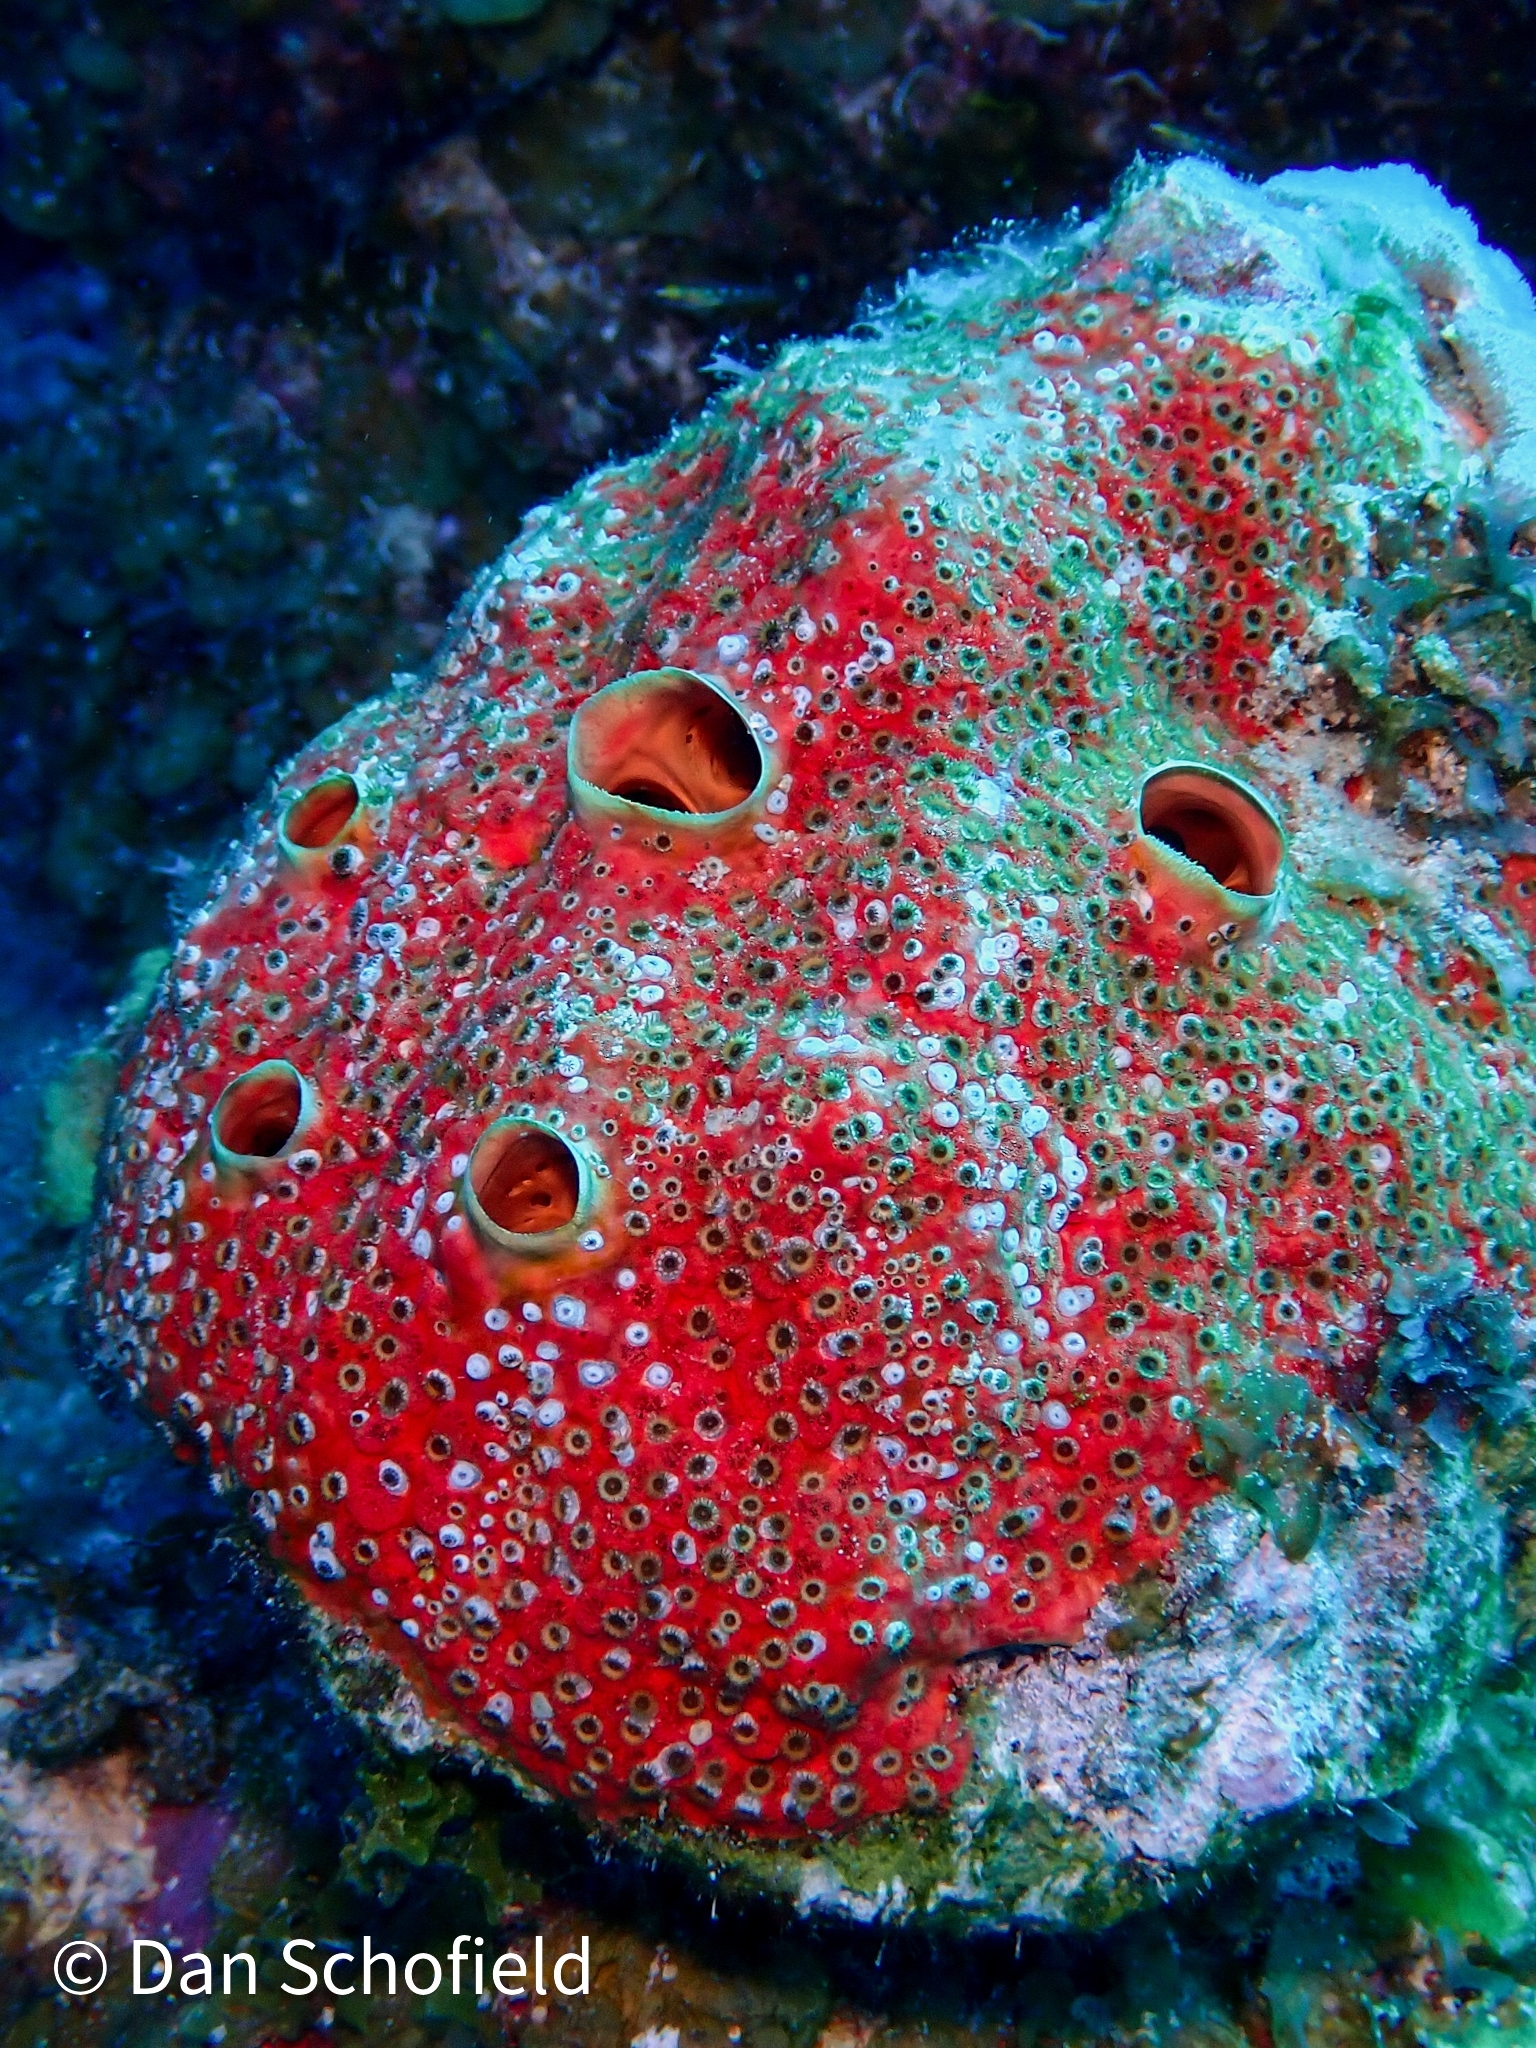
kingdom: Animalia
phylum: Porifera
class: Demospongiae
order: Clionaida
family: Clionaidae
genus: Cliothosa
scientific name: Cliothosa delitrix
